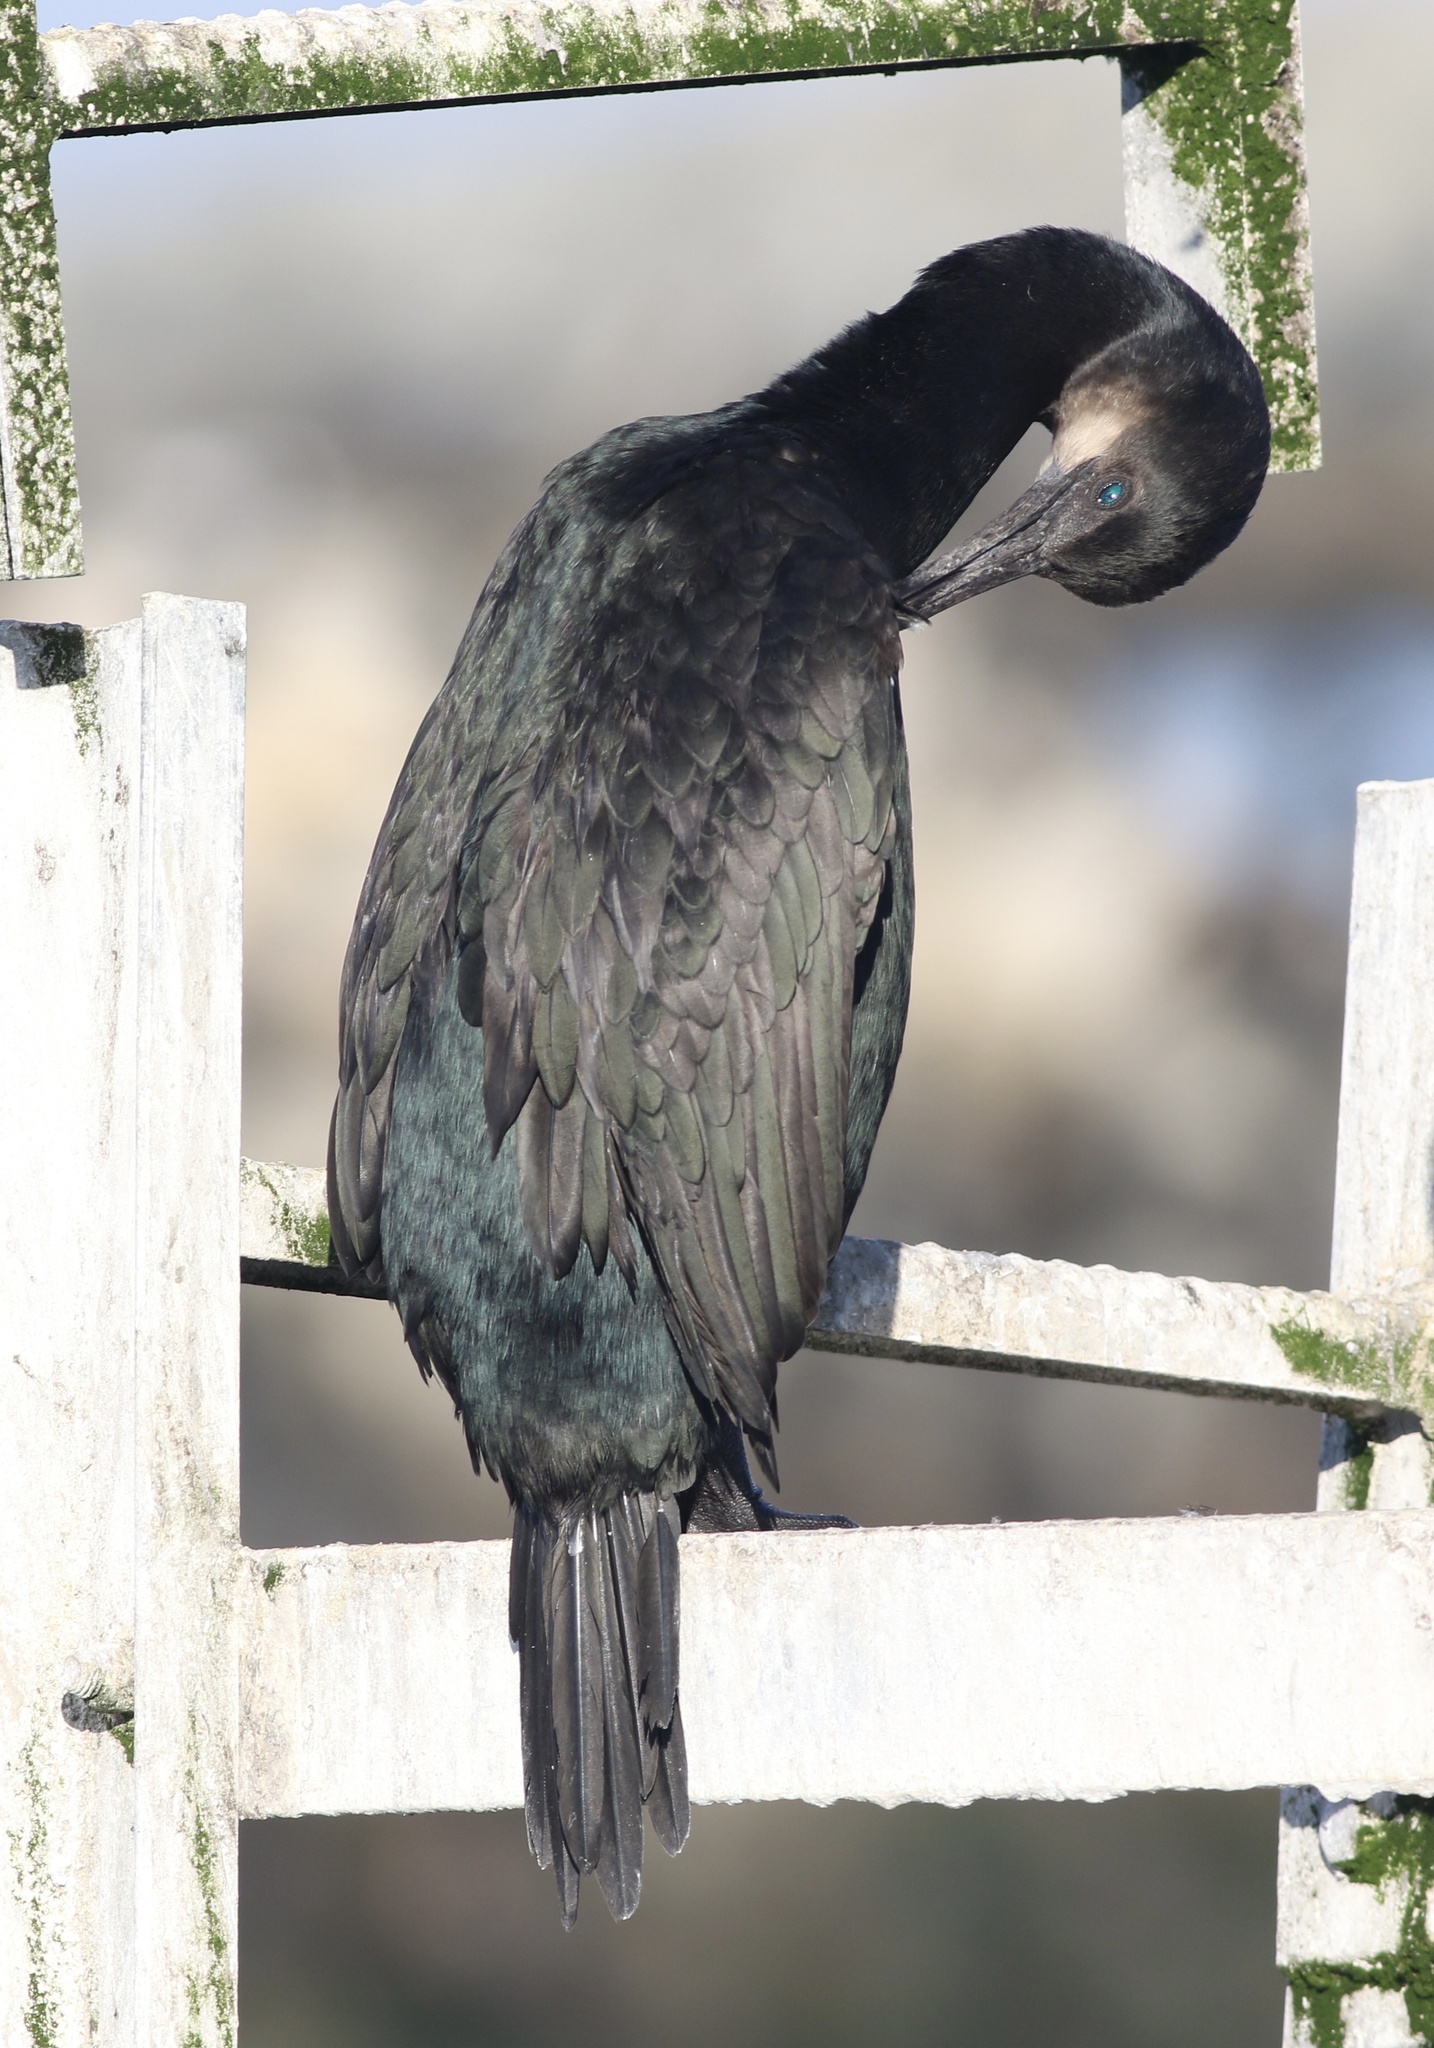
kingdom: Animalia
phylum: Chordata
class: Aves
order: Suliformes
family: Phalacrocoracidae
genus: Urile
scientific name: Urile penicillatus
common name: Brandt's cormorant
